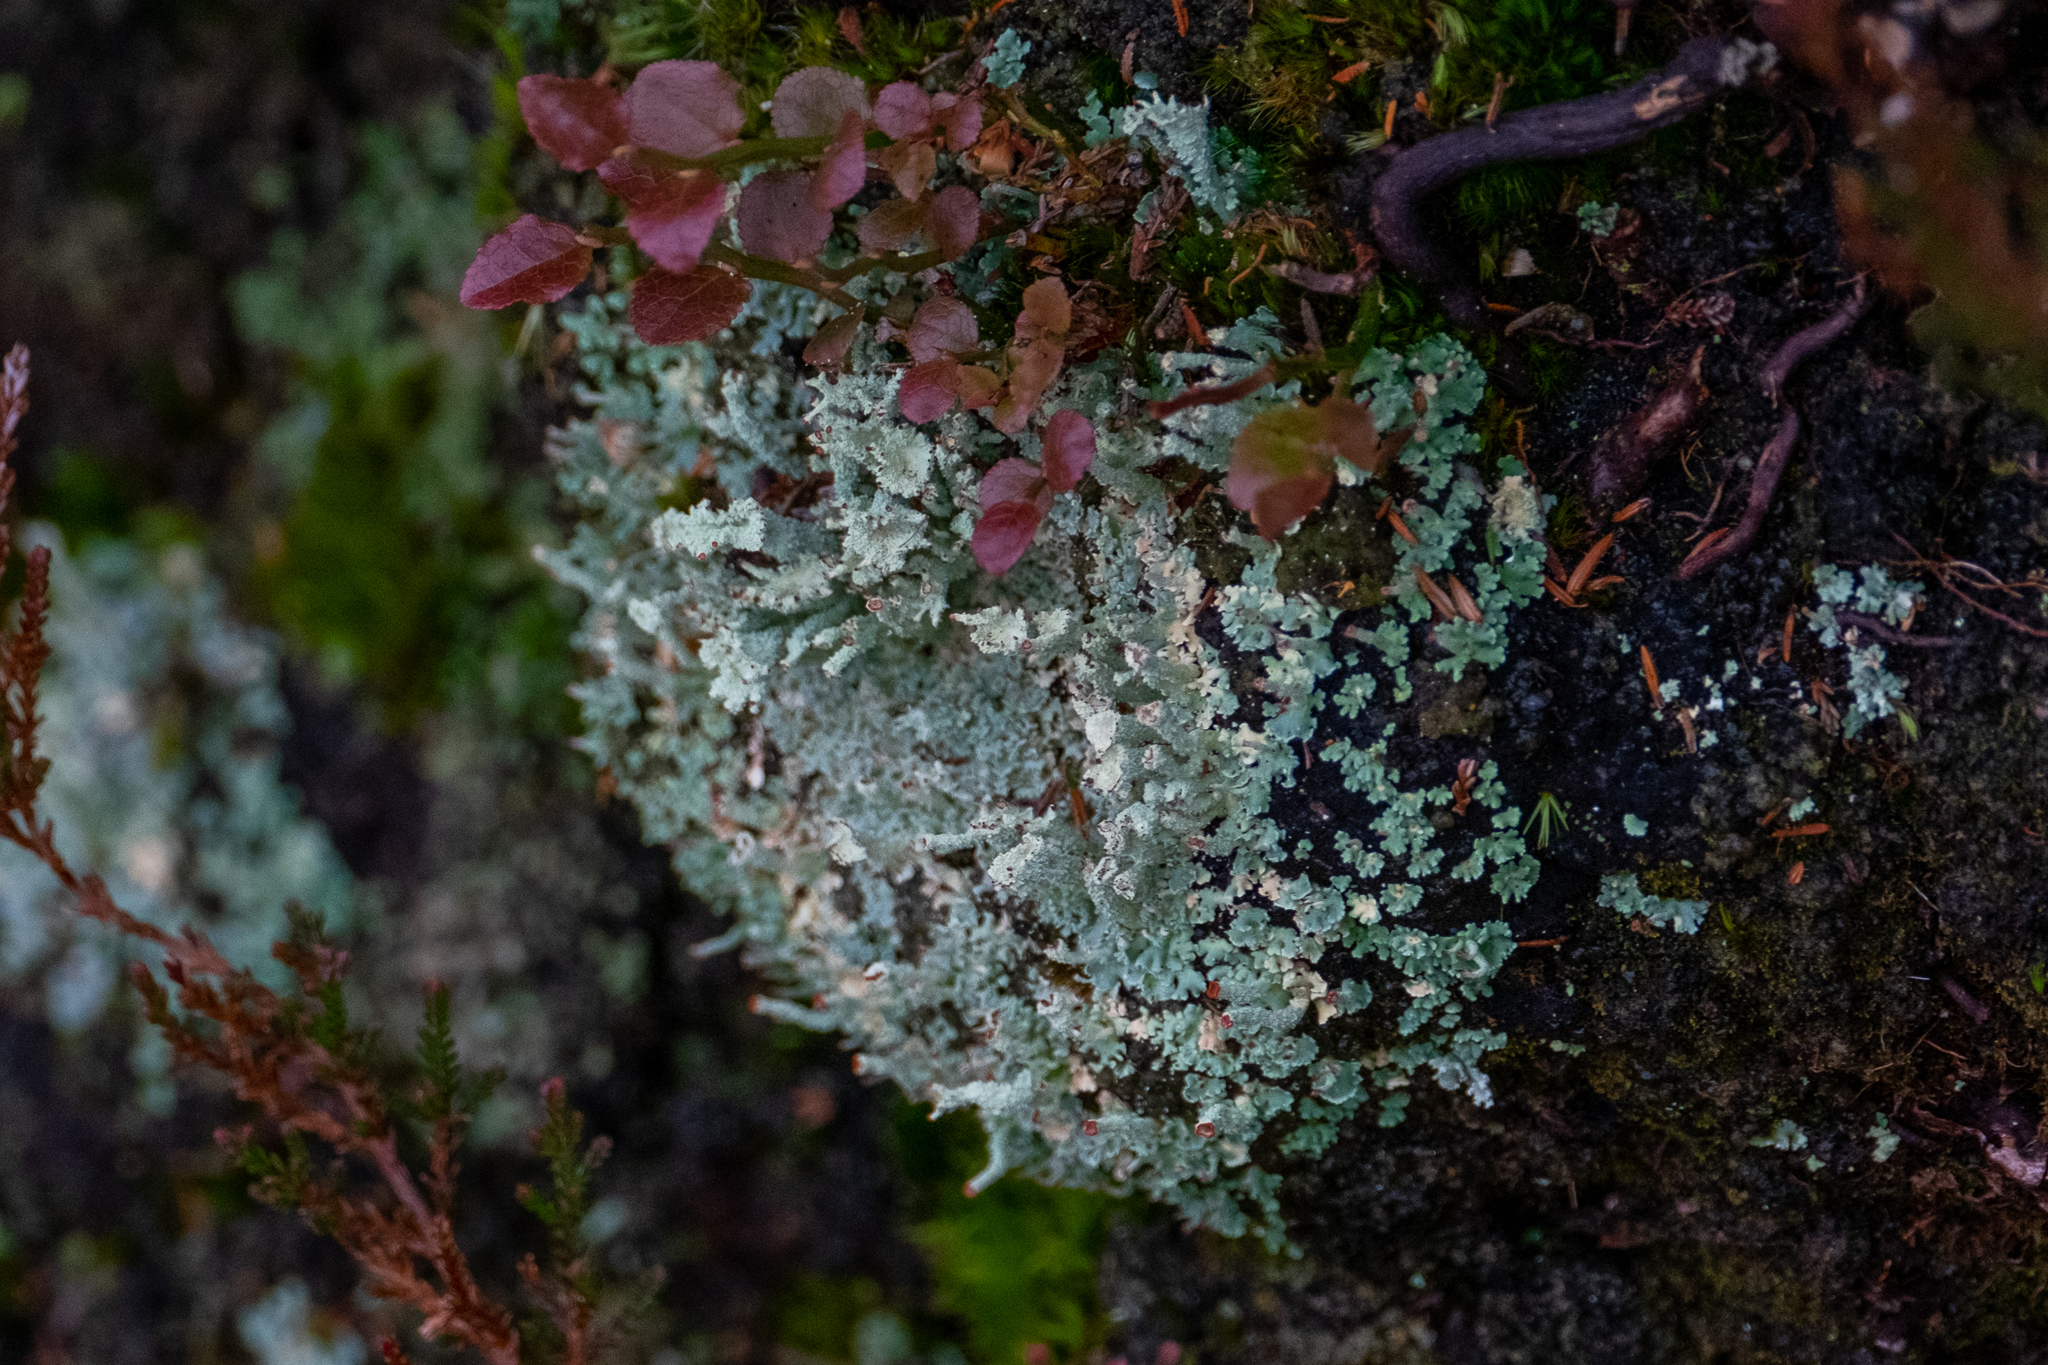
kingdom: Fungi
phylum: Ascomycota
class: Lecanoromycetes
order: Lecanorales
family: Cladoniaceae
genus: Cladonia
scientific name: Cladonia polydactyla
